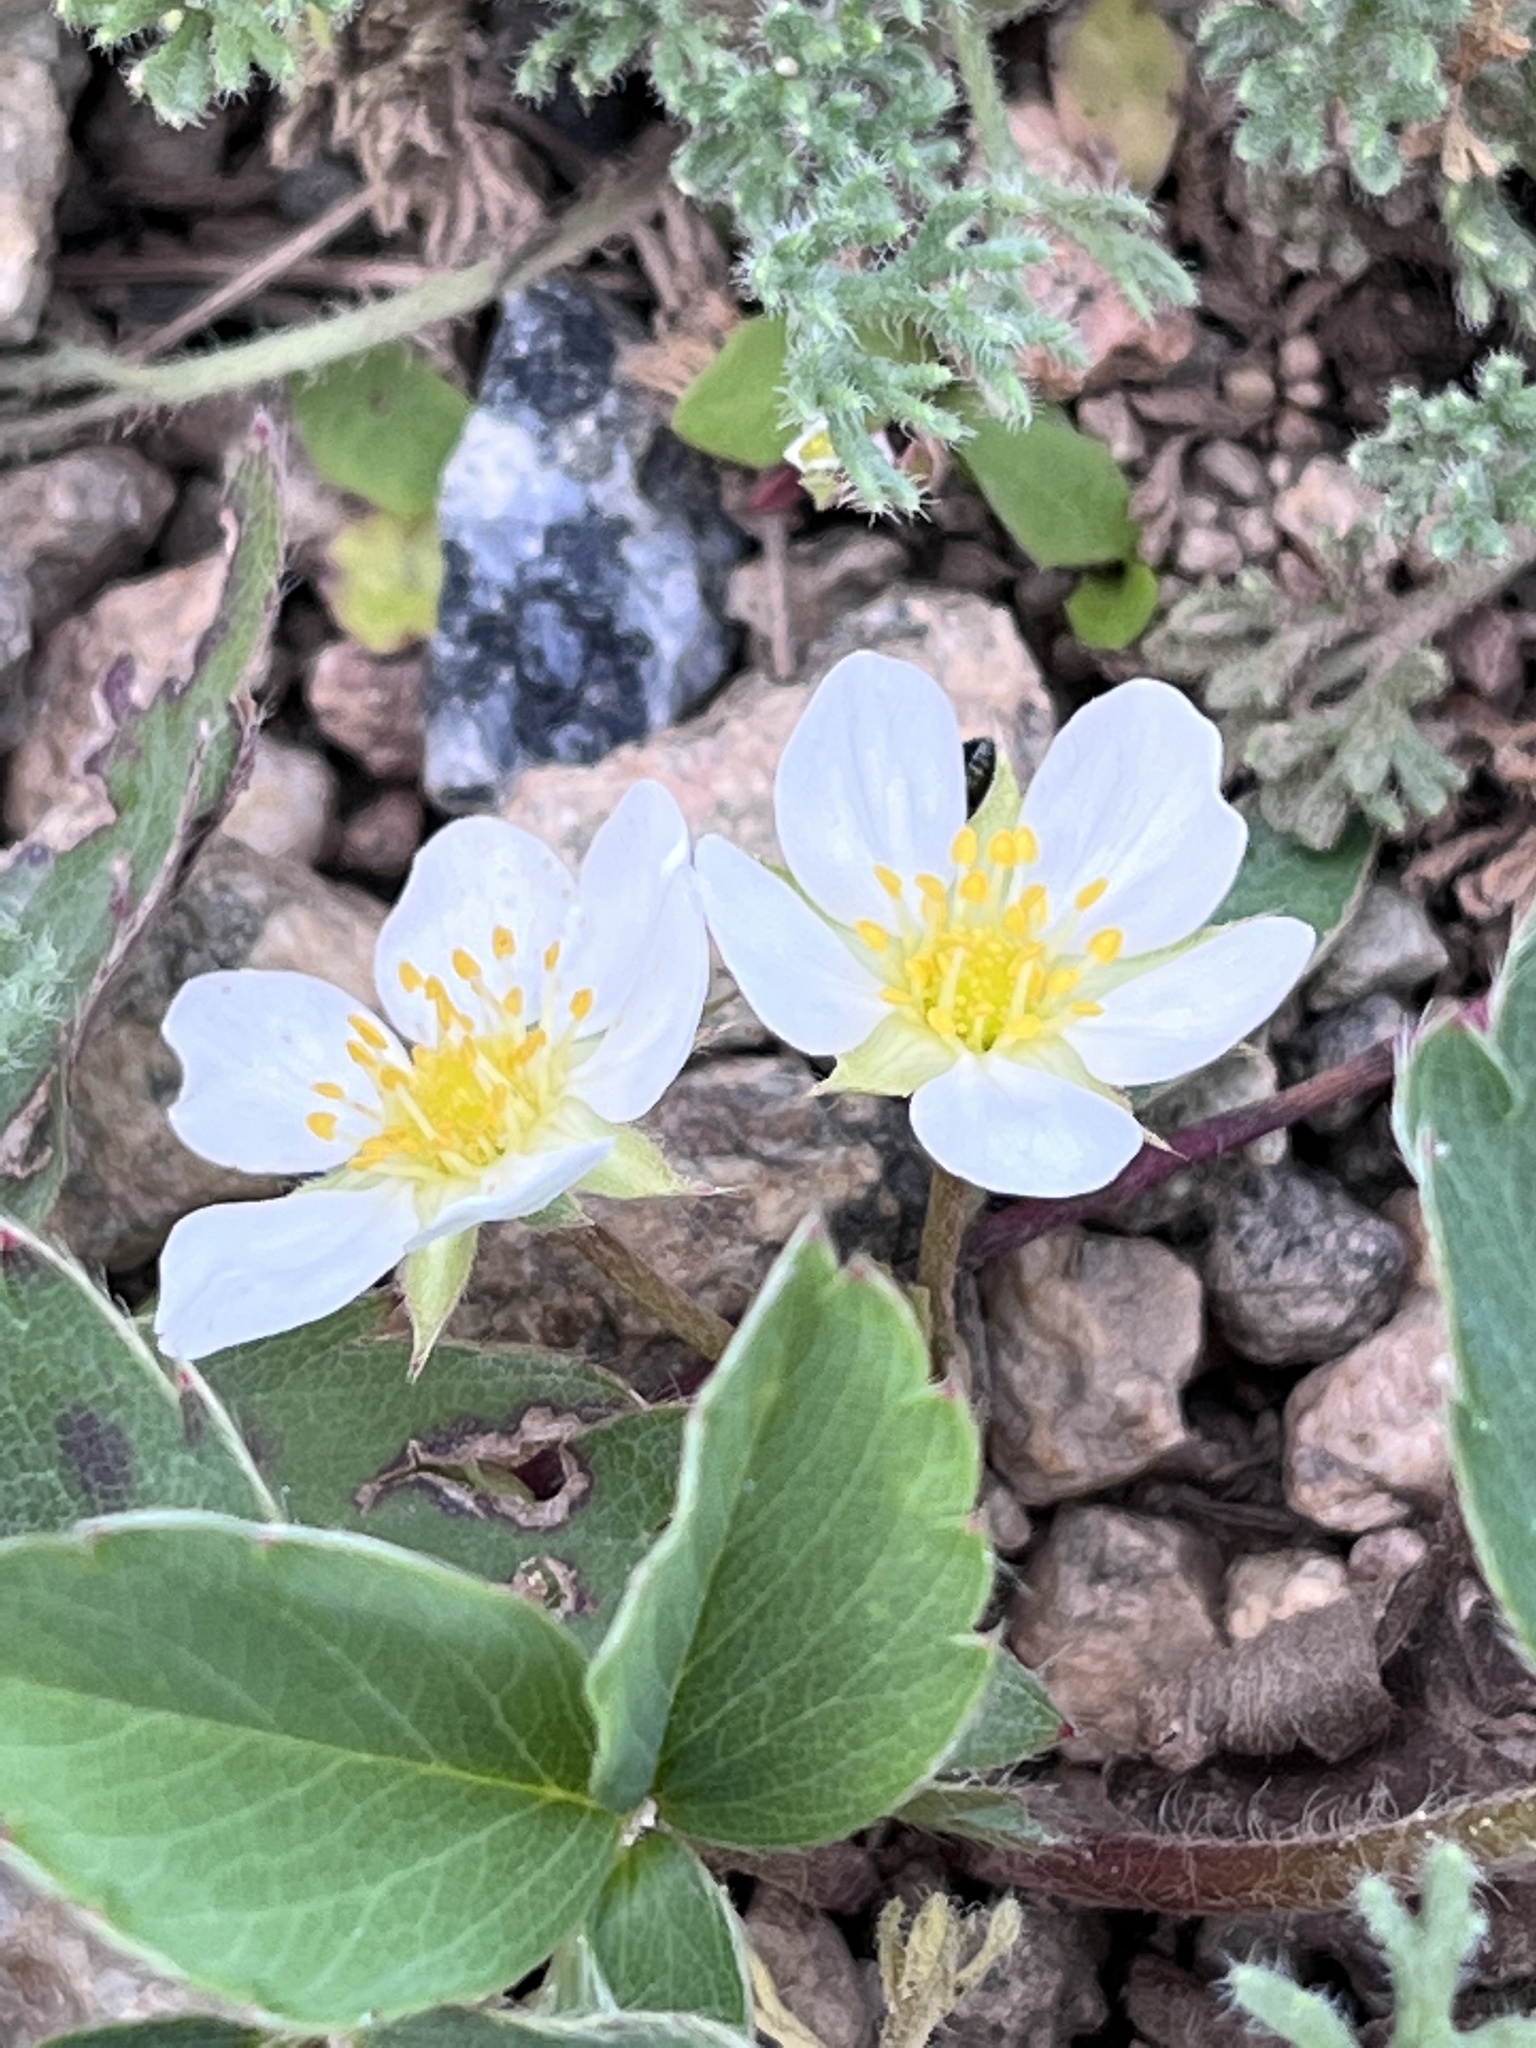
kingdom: Plantae
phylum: Tracheophyta
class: Magnoliopsida
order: Rosales
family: Rosaceae
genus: Fragaria
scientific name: Fragaria virginiana
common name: Thickleaved wild strawberry
